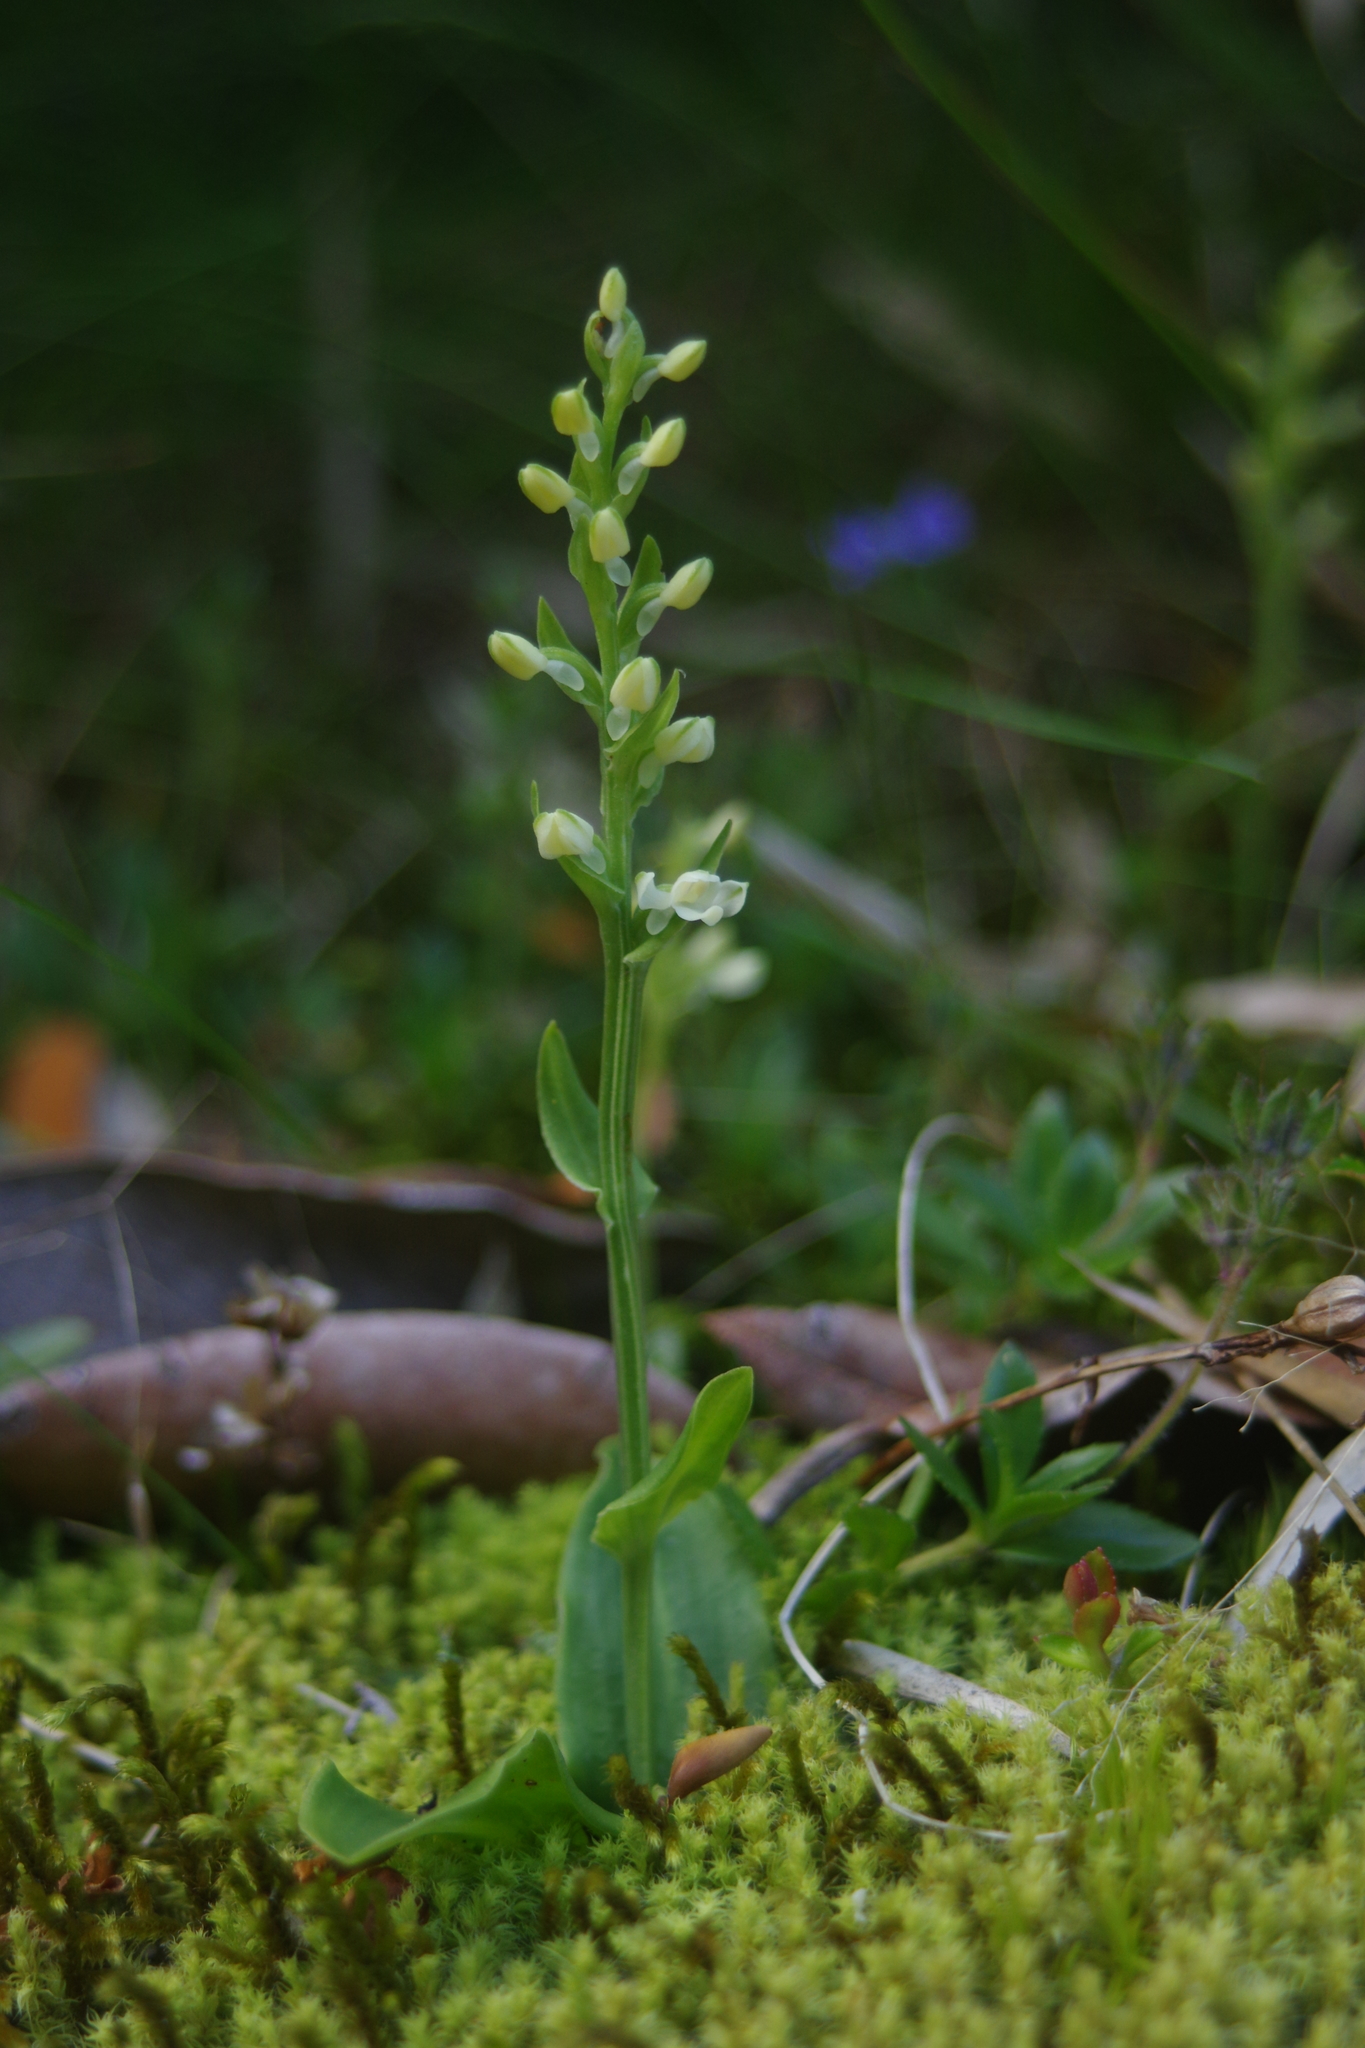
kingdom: Plantae
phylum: Tracheophyta
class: Liliopsida
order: Asparagales
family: Orchidaceae
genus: Platanthera
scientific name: Platanthera brevicalcarata
